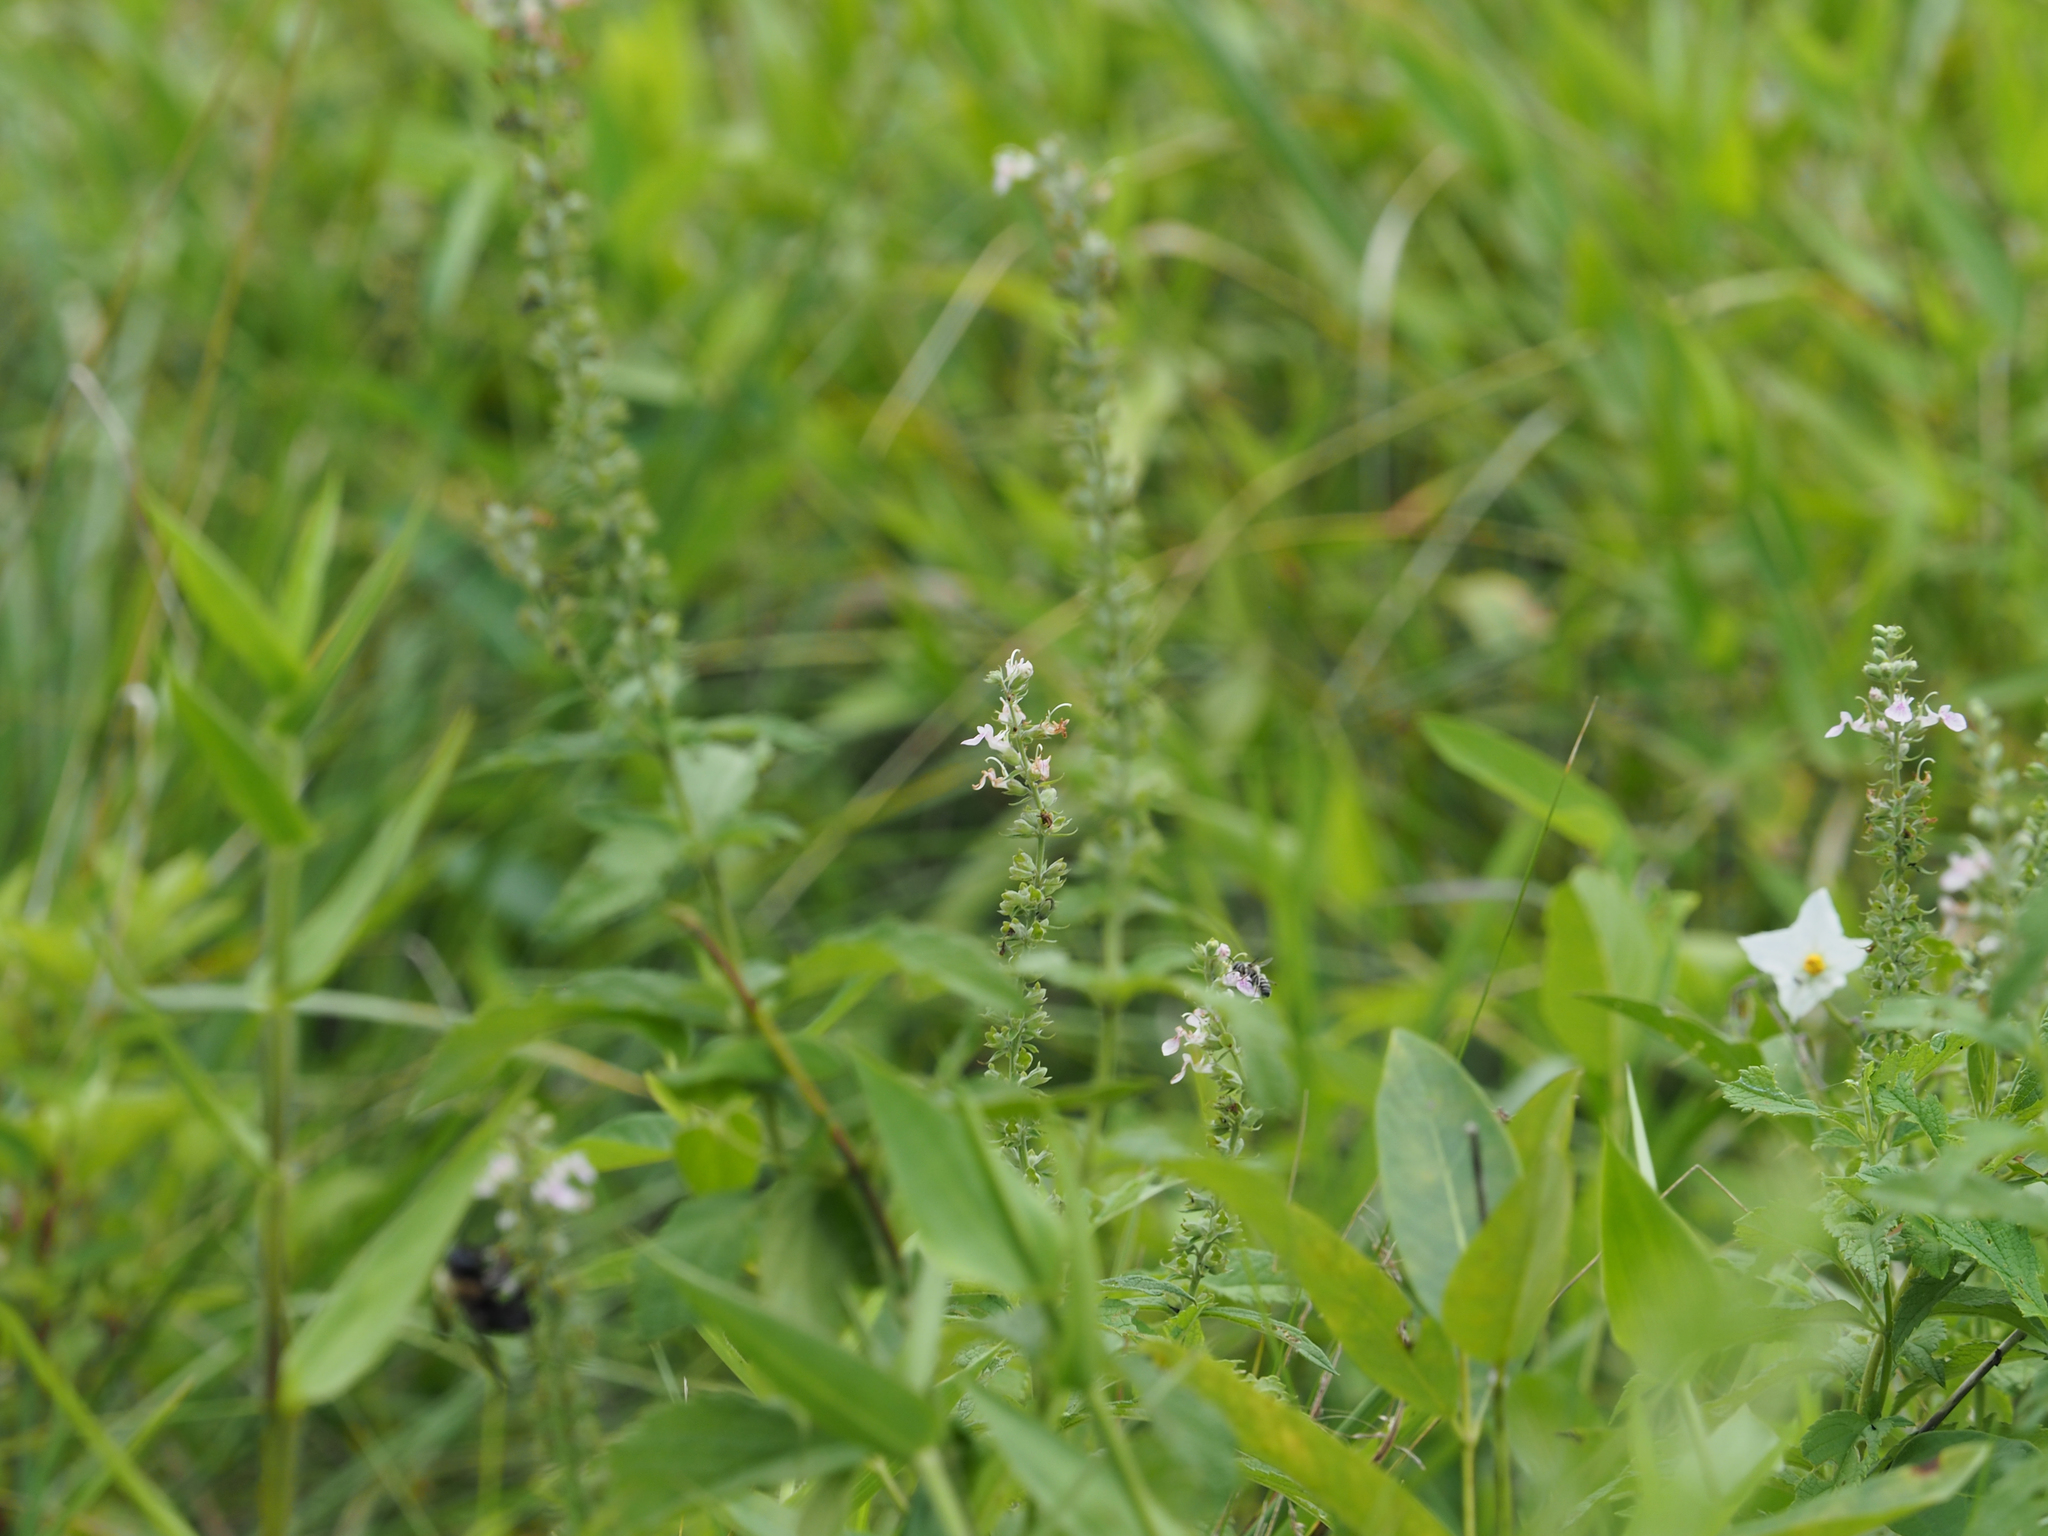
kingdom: Plantae
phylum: Tracheophyta
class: Magnoliopsida
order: Lamiales
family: Lamiaceae
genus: Teucrium
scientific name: Teucrium canadense
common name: American germander
